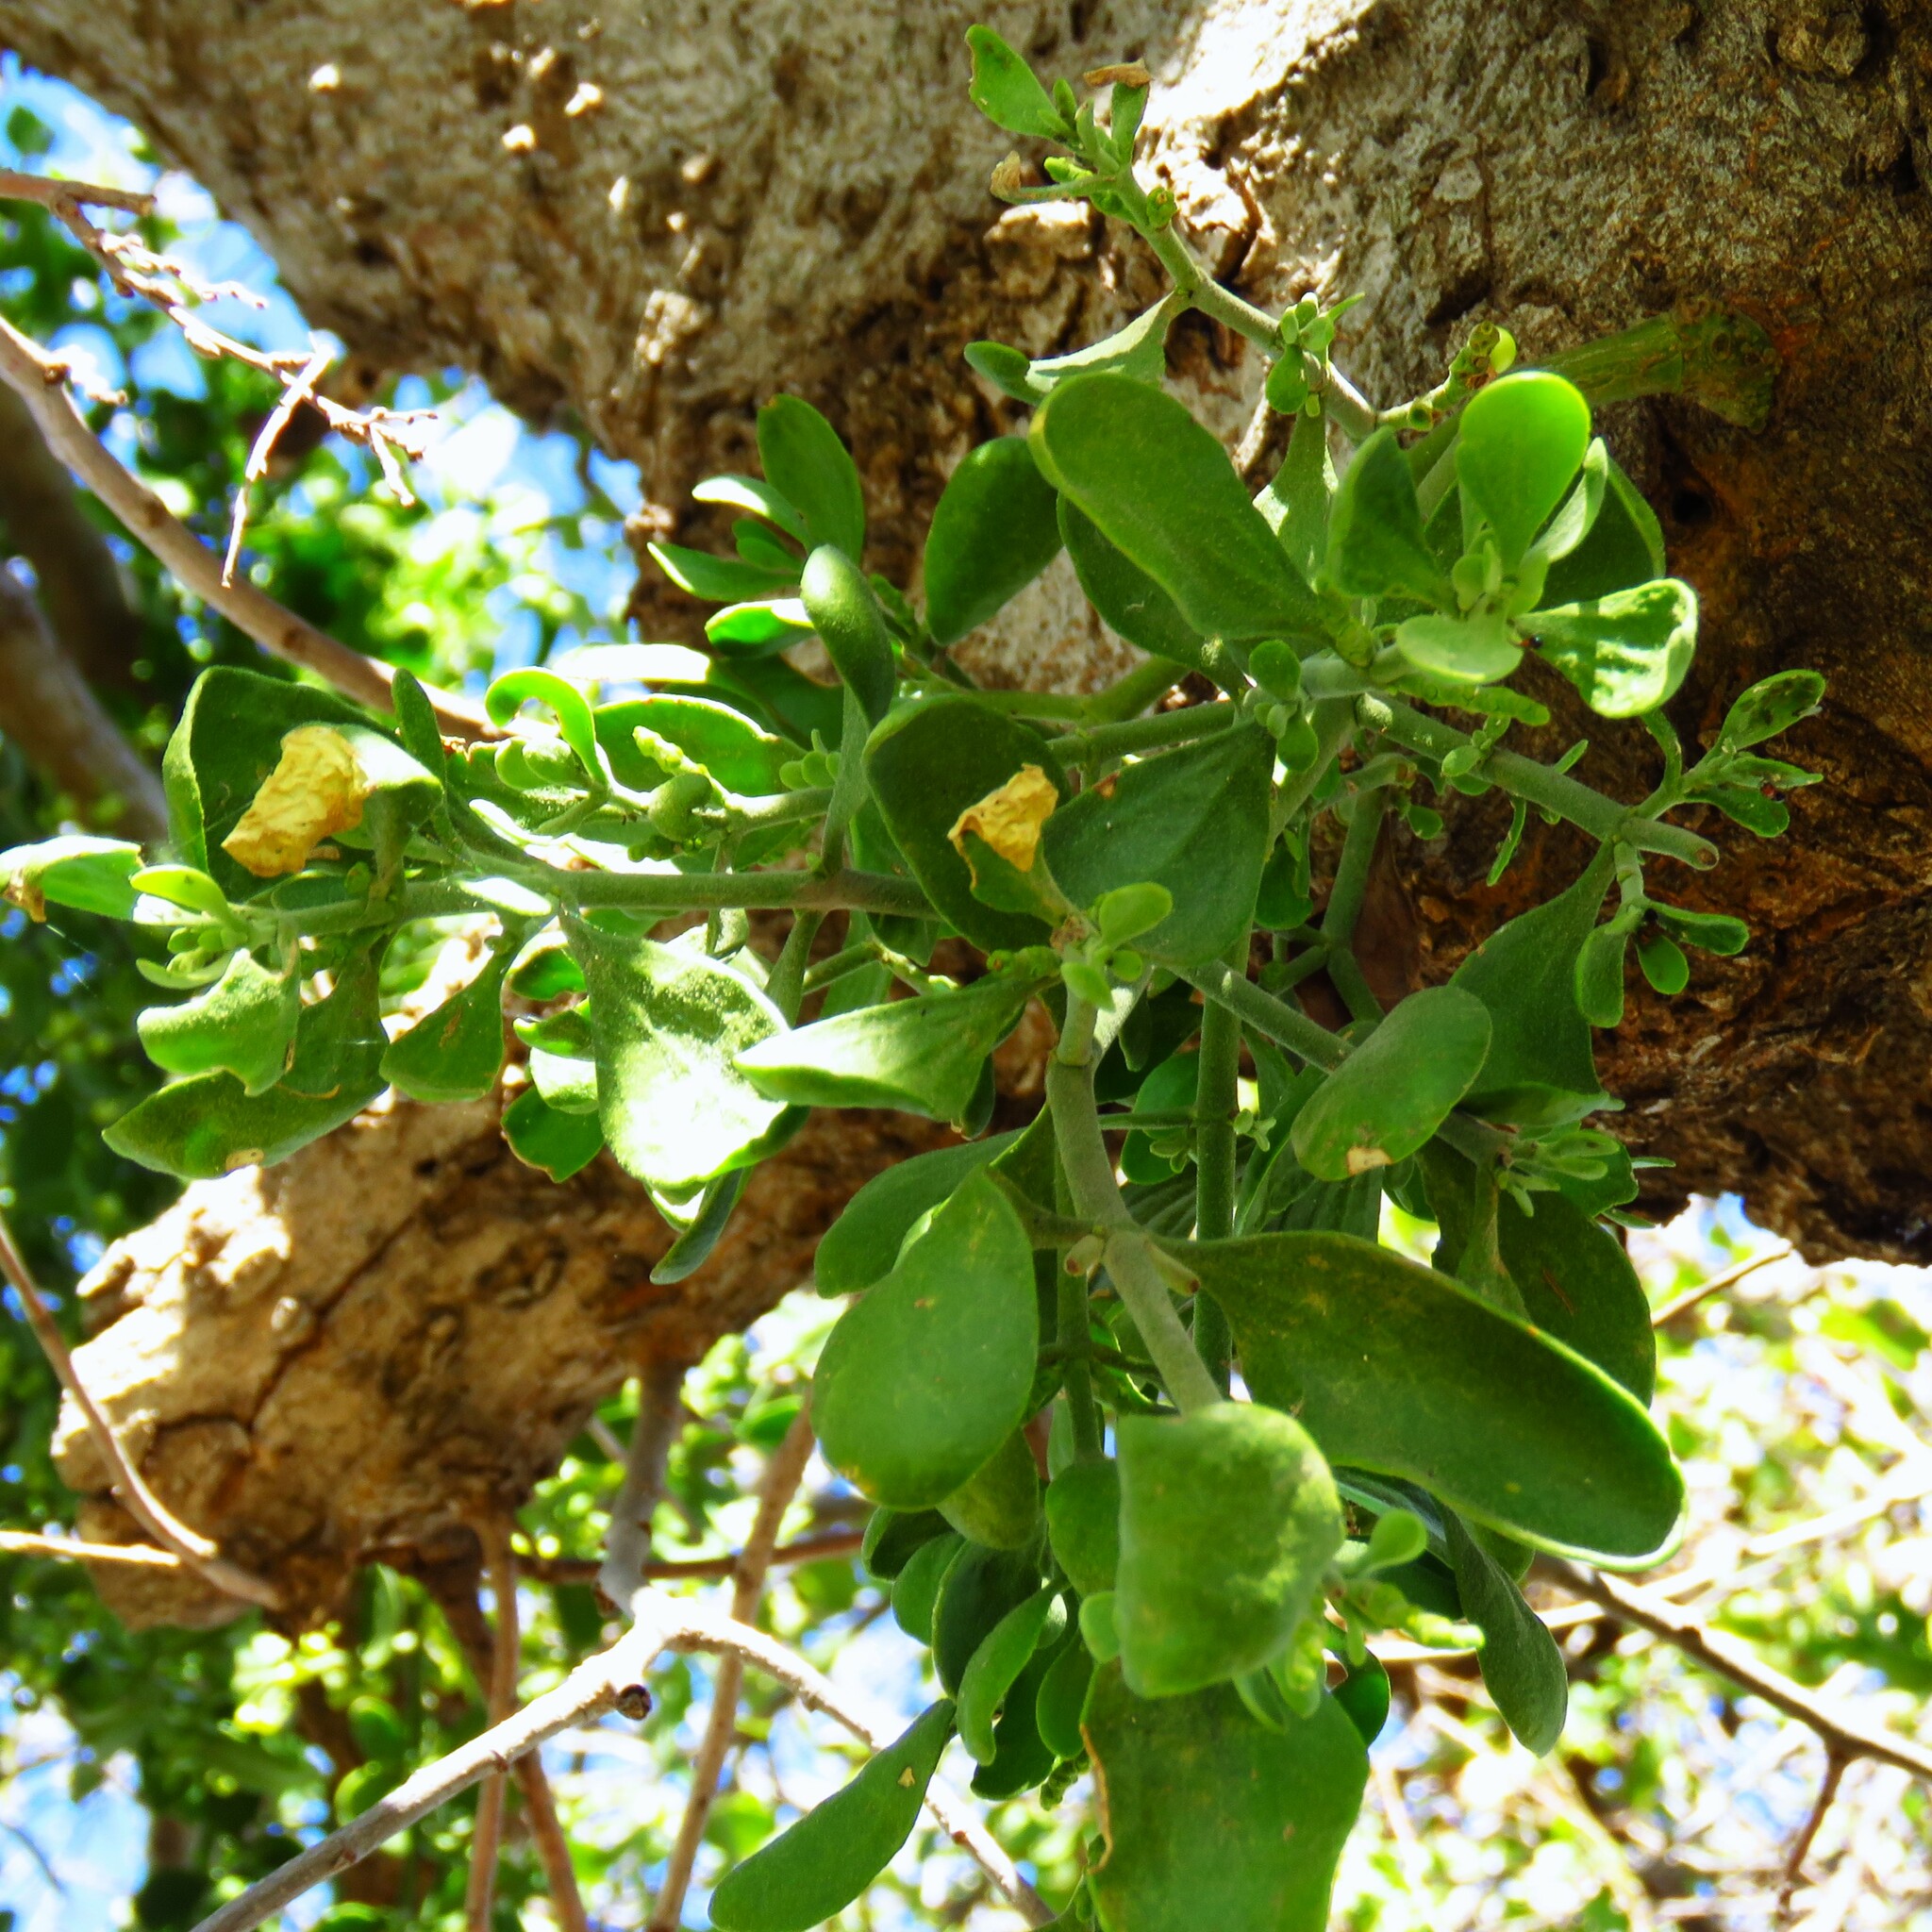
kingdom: Plantae
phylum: Tracheophyta
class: Magnoliopsida
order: Santalales
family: Viscaceae
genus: Phoradendron
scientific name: Phoradendron leucarpum
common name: Pacific mistletoe
